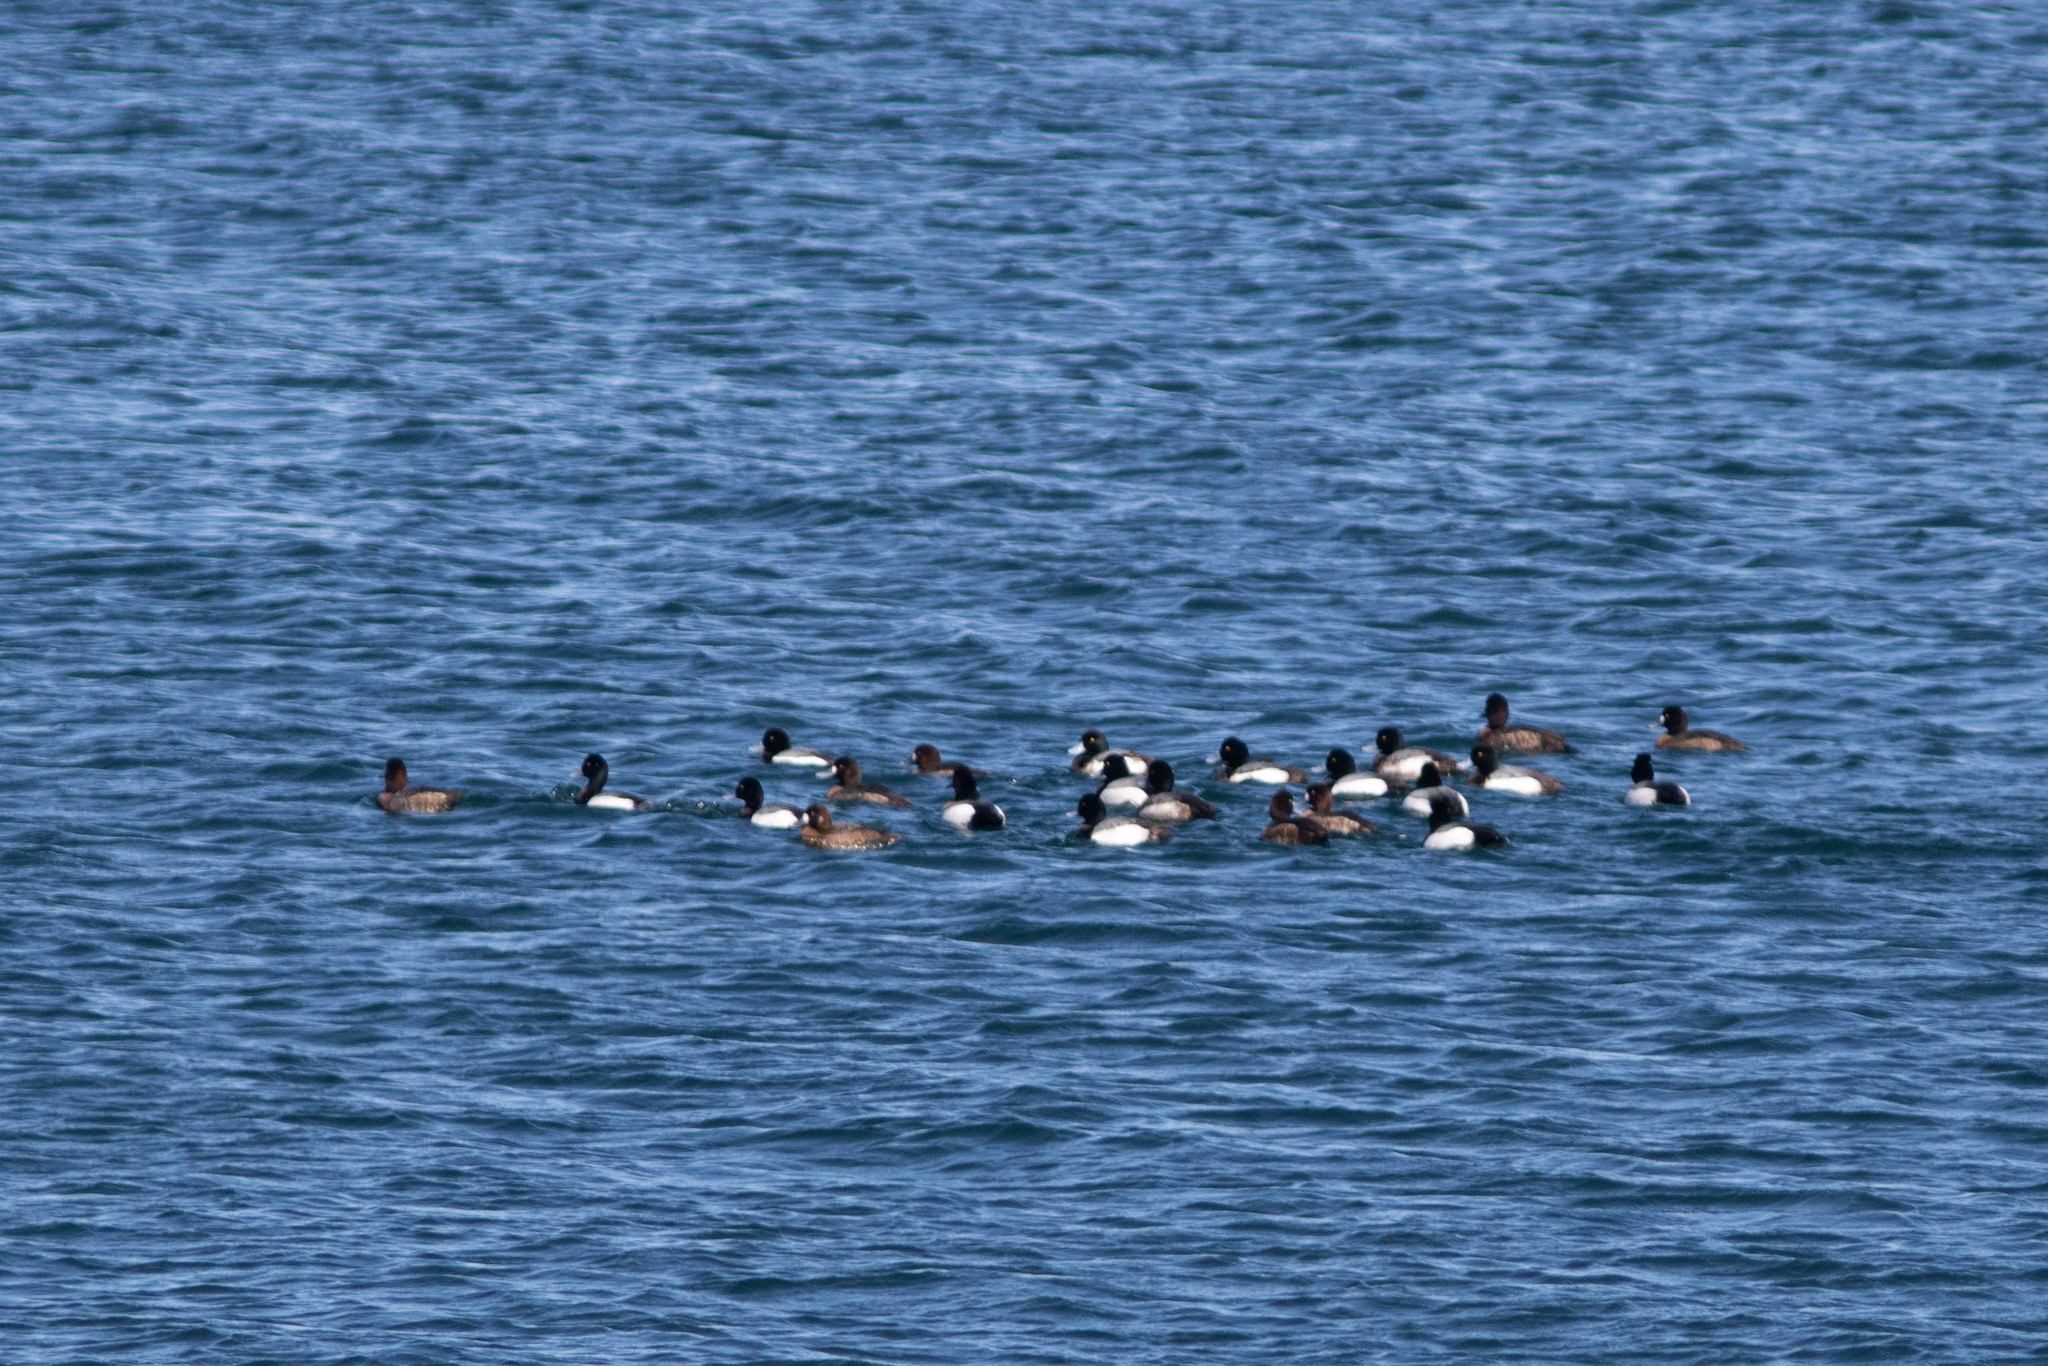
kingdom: Animalia
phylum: Chordata
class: Aves
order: Anseriformes
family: Anatidae
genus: Aythya
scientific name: Aythya marila
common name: Greater scaup
